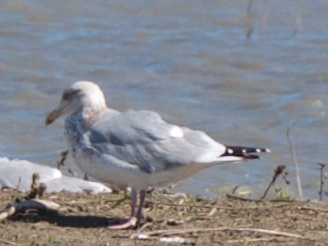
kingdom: Animalia
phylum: Chordata
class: Aves
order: Charadriiformes
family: Laridae
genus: Larus
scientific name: Larus argentatus
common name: Herring gull
